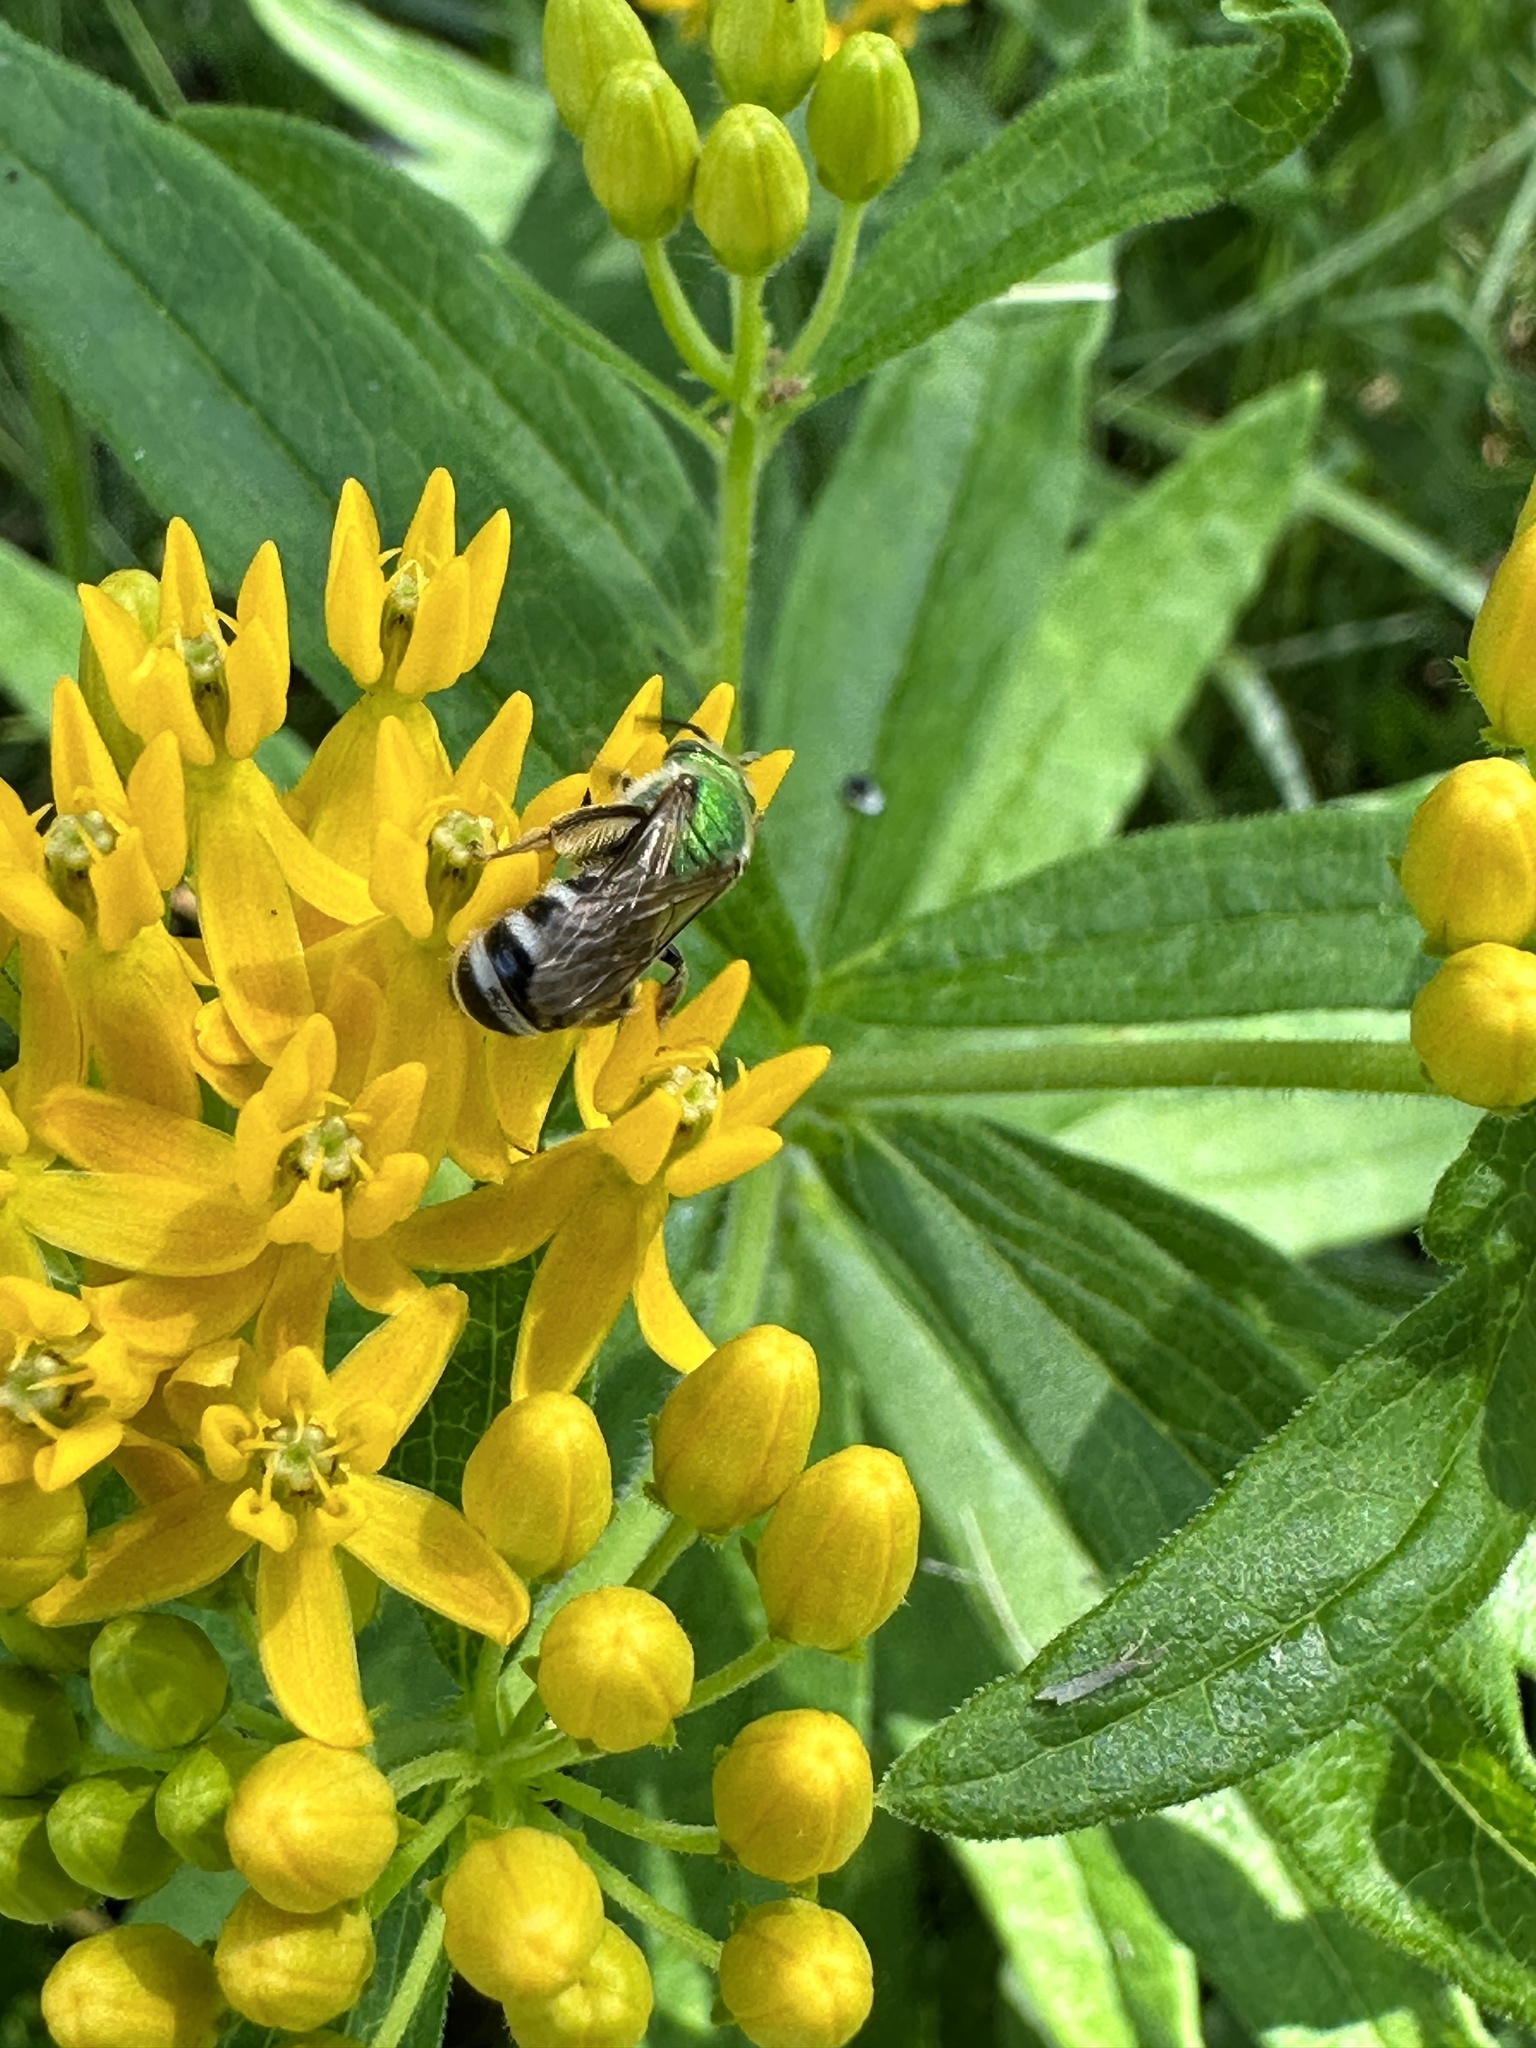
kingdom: Animalia
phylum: Arthropoda
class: Insecta
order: Hymenoptera
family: Halictidae
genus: Agapostemon
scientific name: Agapostemon virescens
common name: Bicolored striped sweat bee
